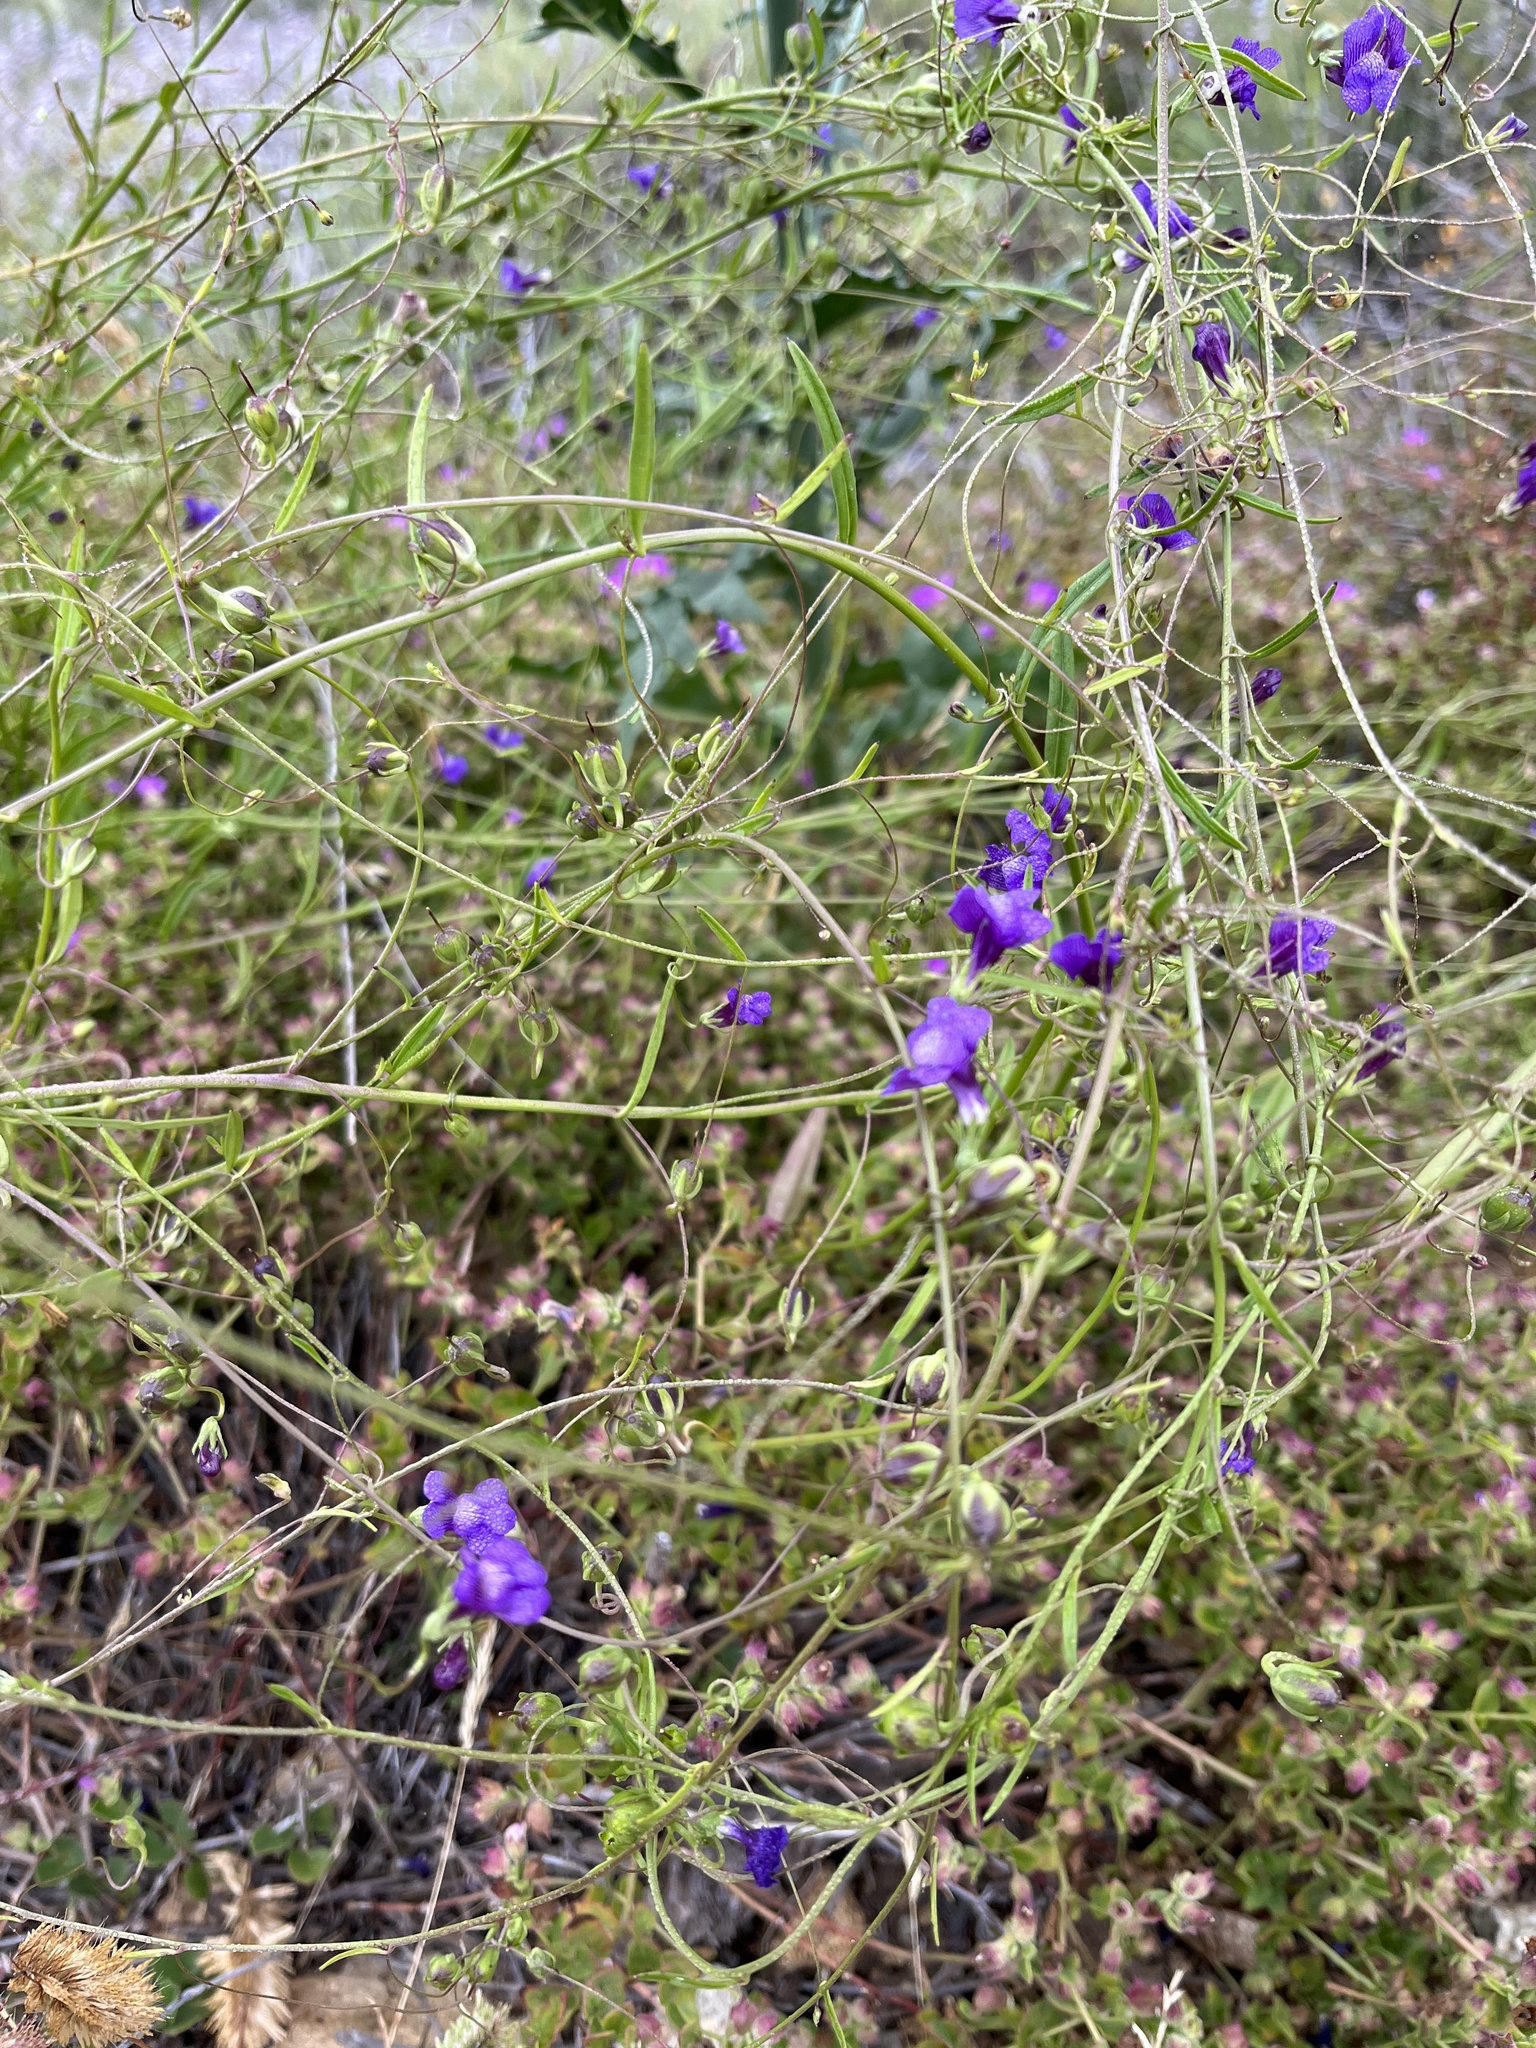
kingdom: Plantae
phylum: Tracheophyta
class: Magnoliopsida
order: Lamiales
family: Plantaginaceae
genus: Neogaerrhinum
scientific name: Neogaerrhinum strictum
